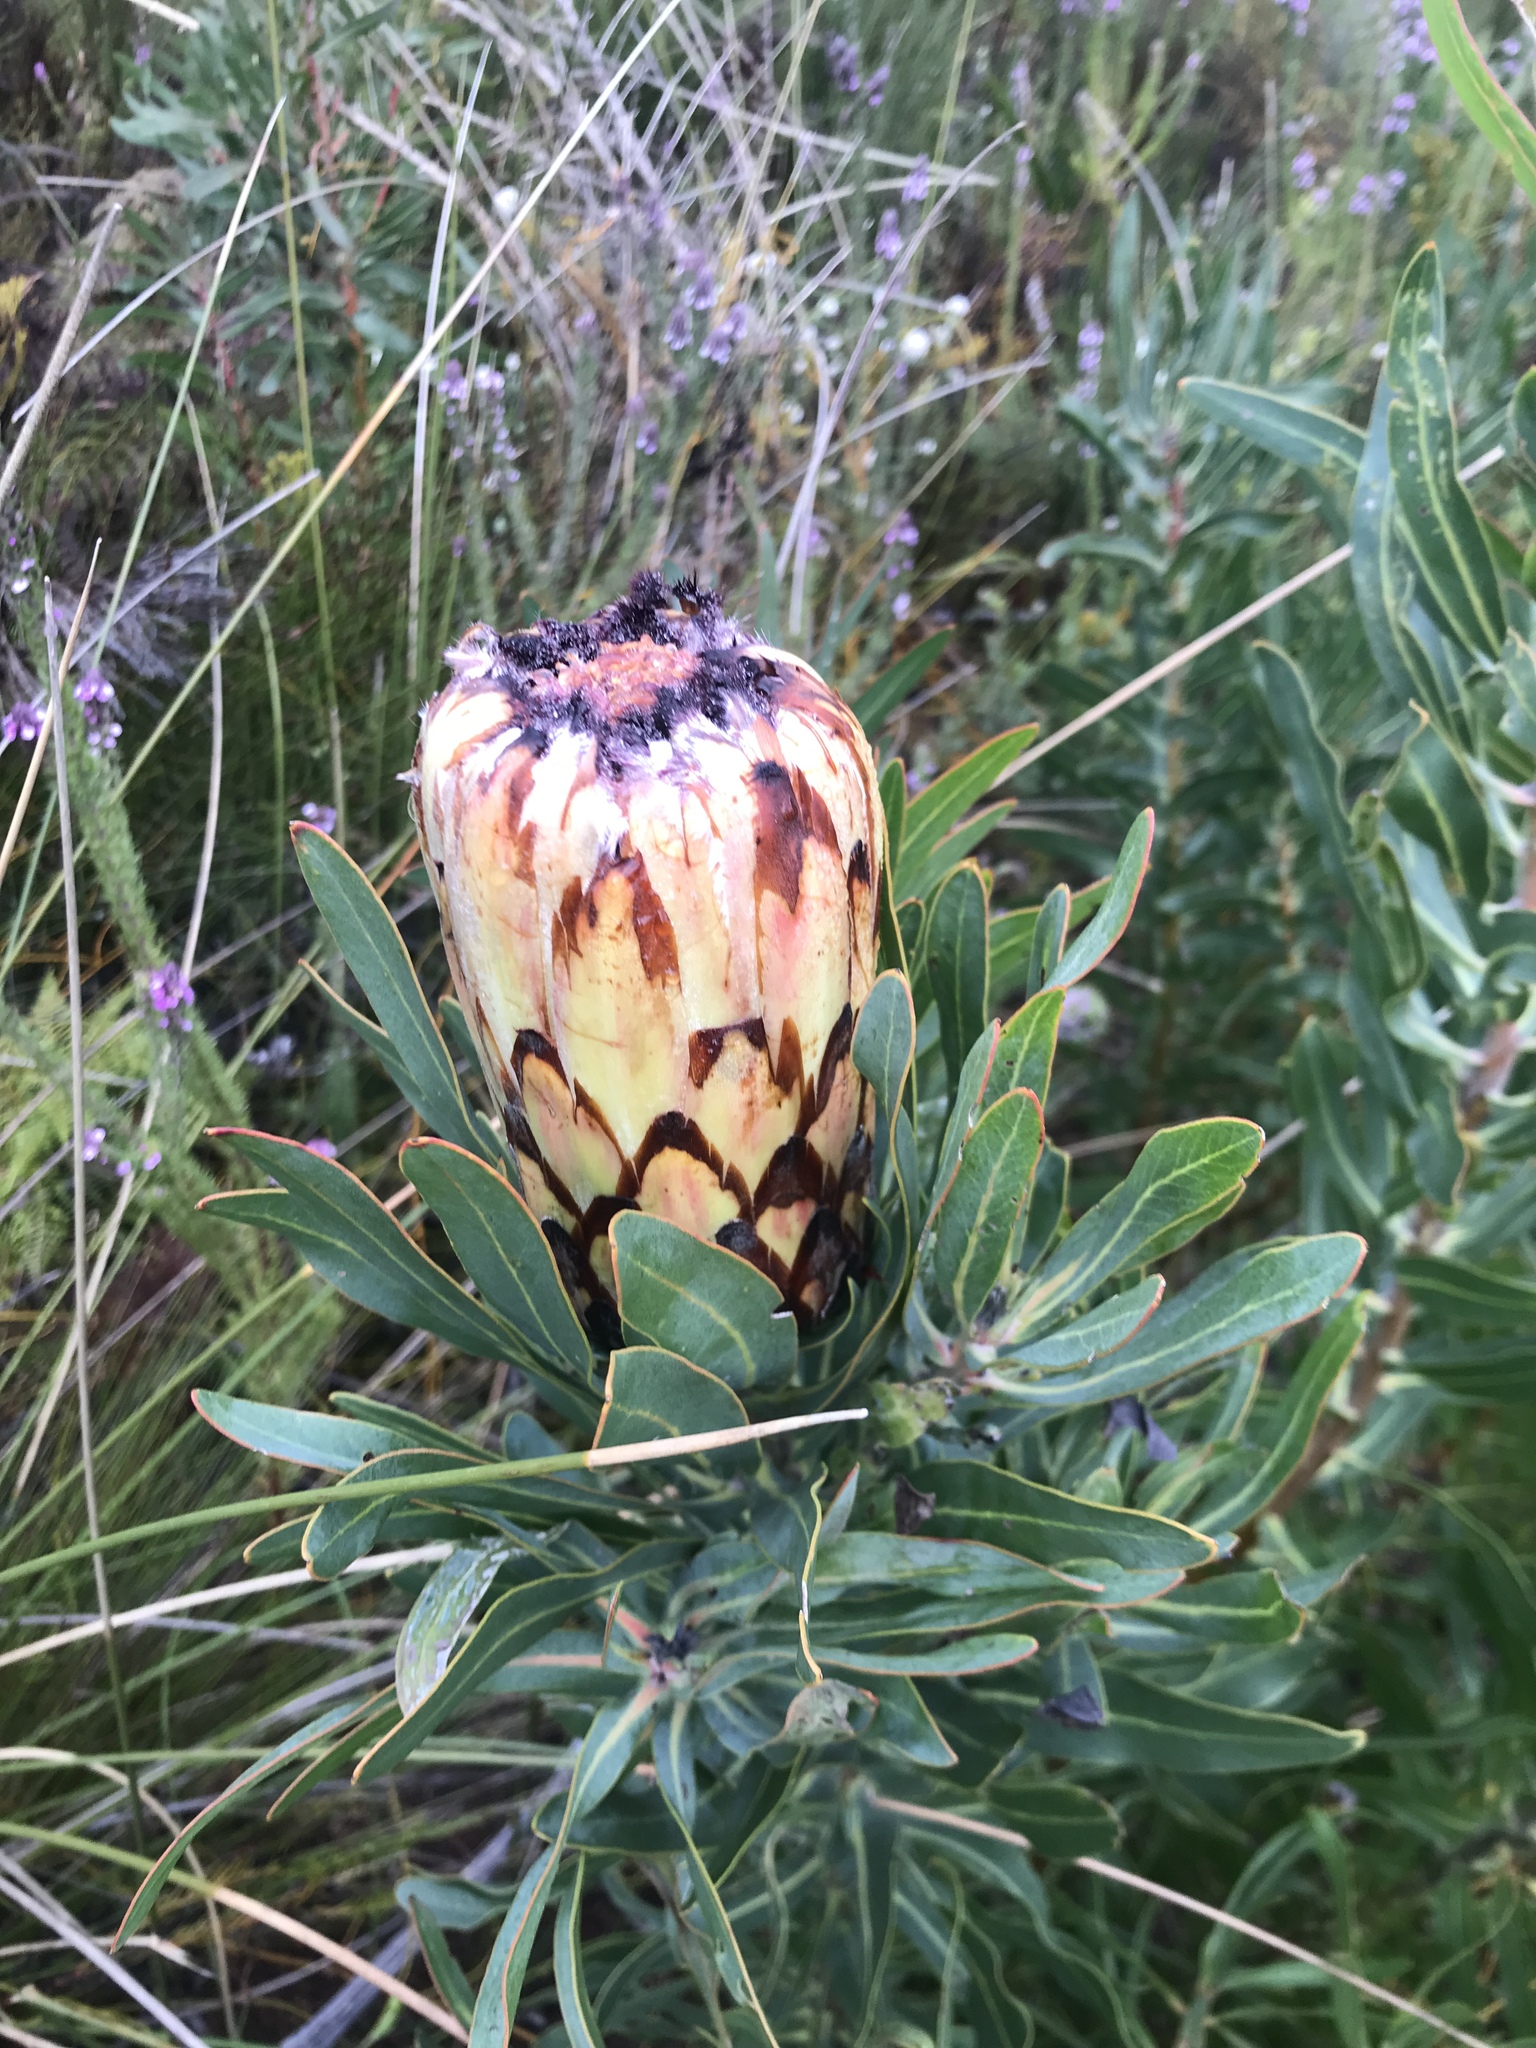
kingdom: Plantae
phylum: Tracheophyta
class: Magnoliopsida
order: Proteales
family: Proteaceae
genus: Protea
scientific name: Protea neriifolia
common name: Blue sugarbush
